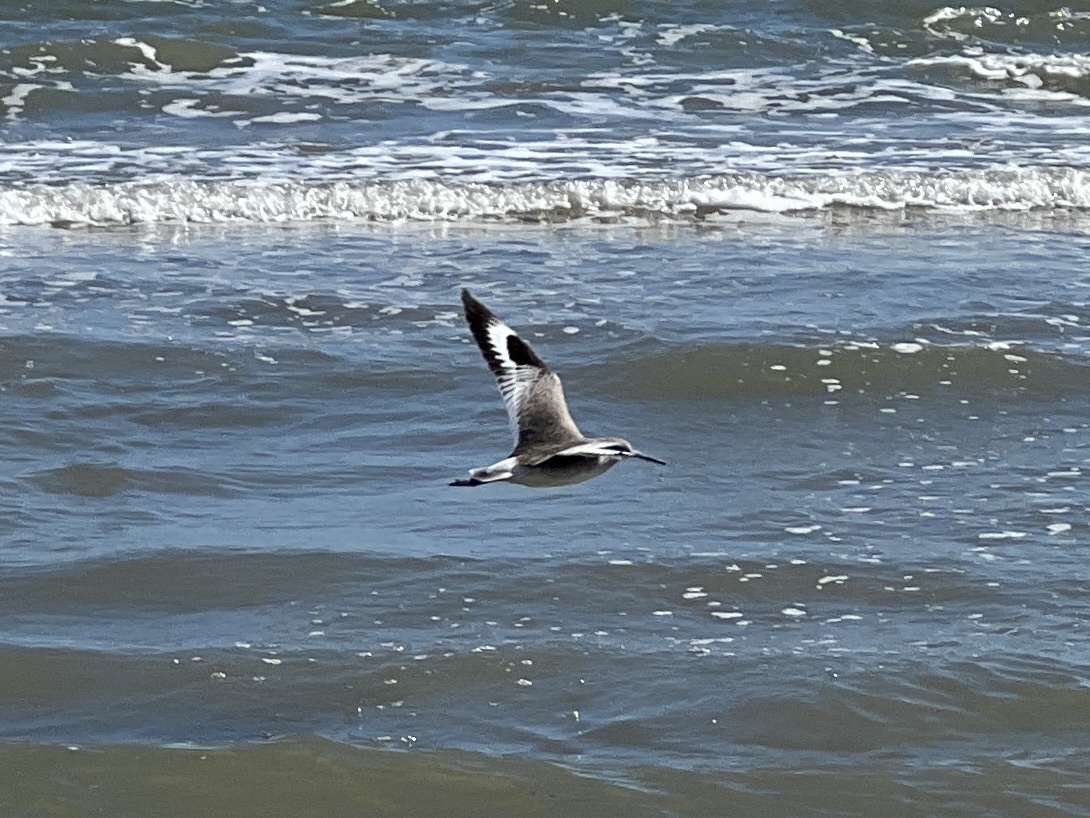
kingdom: Animalia
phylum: Chordata
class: Aves
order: Charadriiformes
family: Scolopacidae
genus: Tringa
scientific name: Tringa semipalmata
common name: Willet
